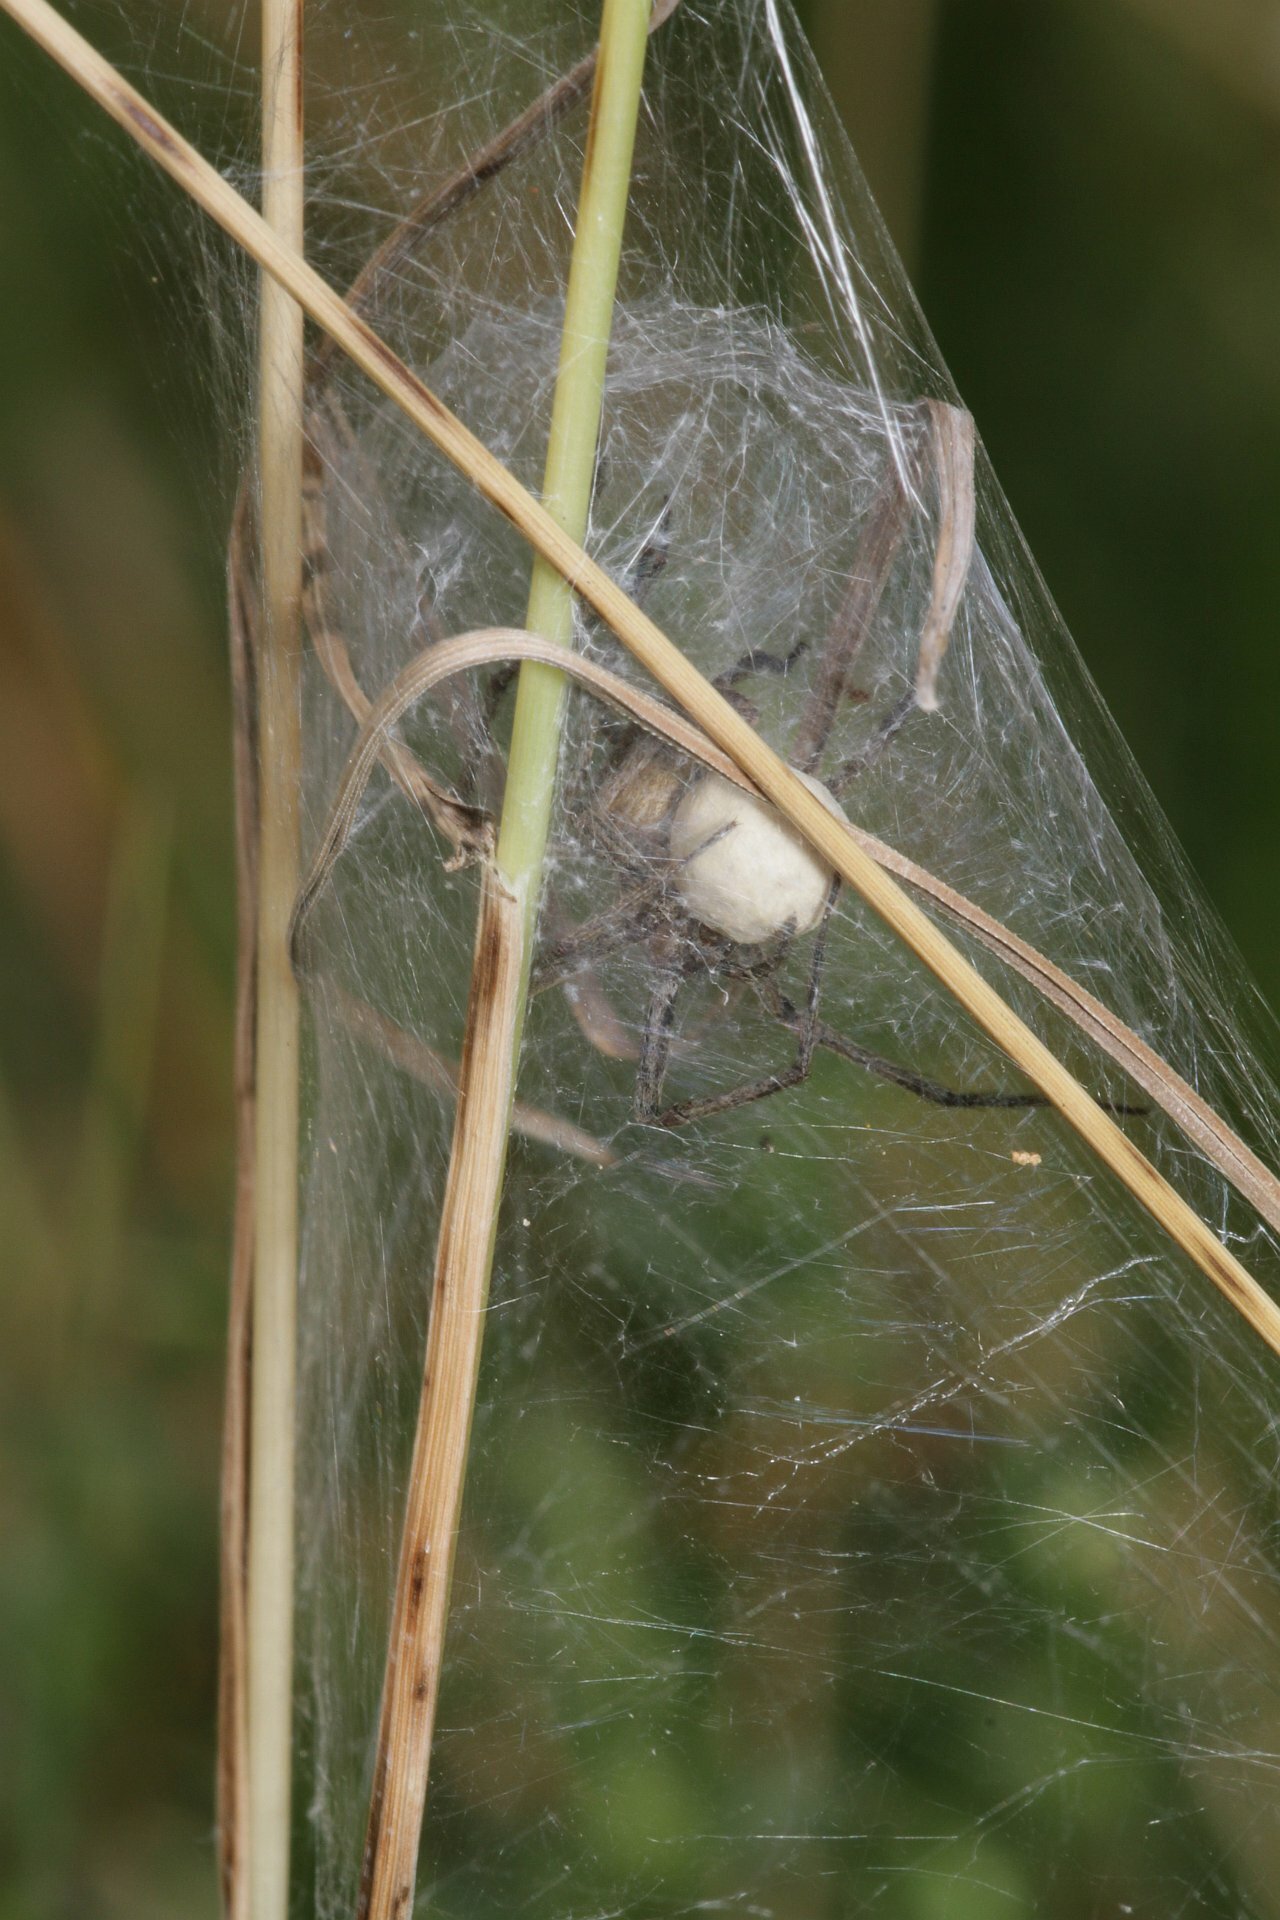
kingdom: Animalia
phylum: Arthropoda
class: Arachnida
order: Araneae
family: Pisauridae
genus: Pisaura
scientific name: Pisaura mirabilis
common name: Tent spider
